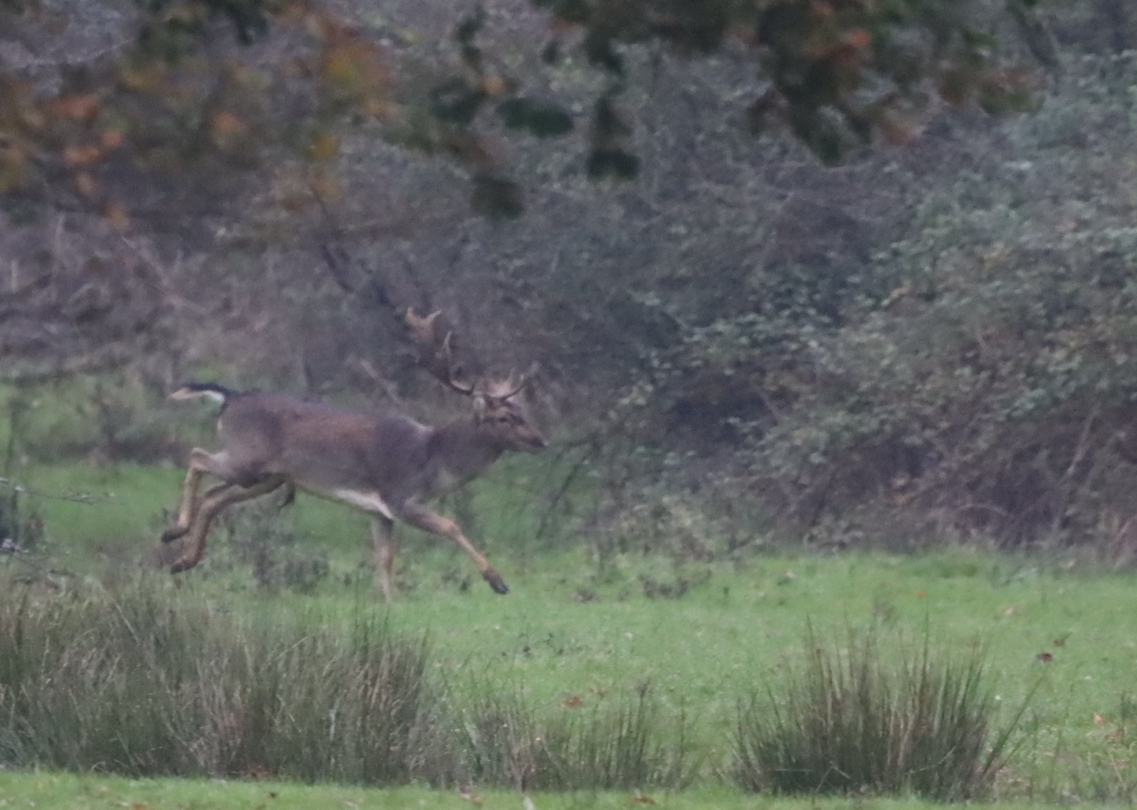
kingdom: Animalia
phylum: Chordata
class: Mammalia
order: Artiodactyla
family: Cervidae
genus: Dama
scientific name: Dama dama
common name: Fallow deer
